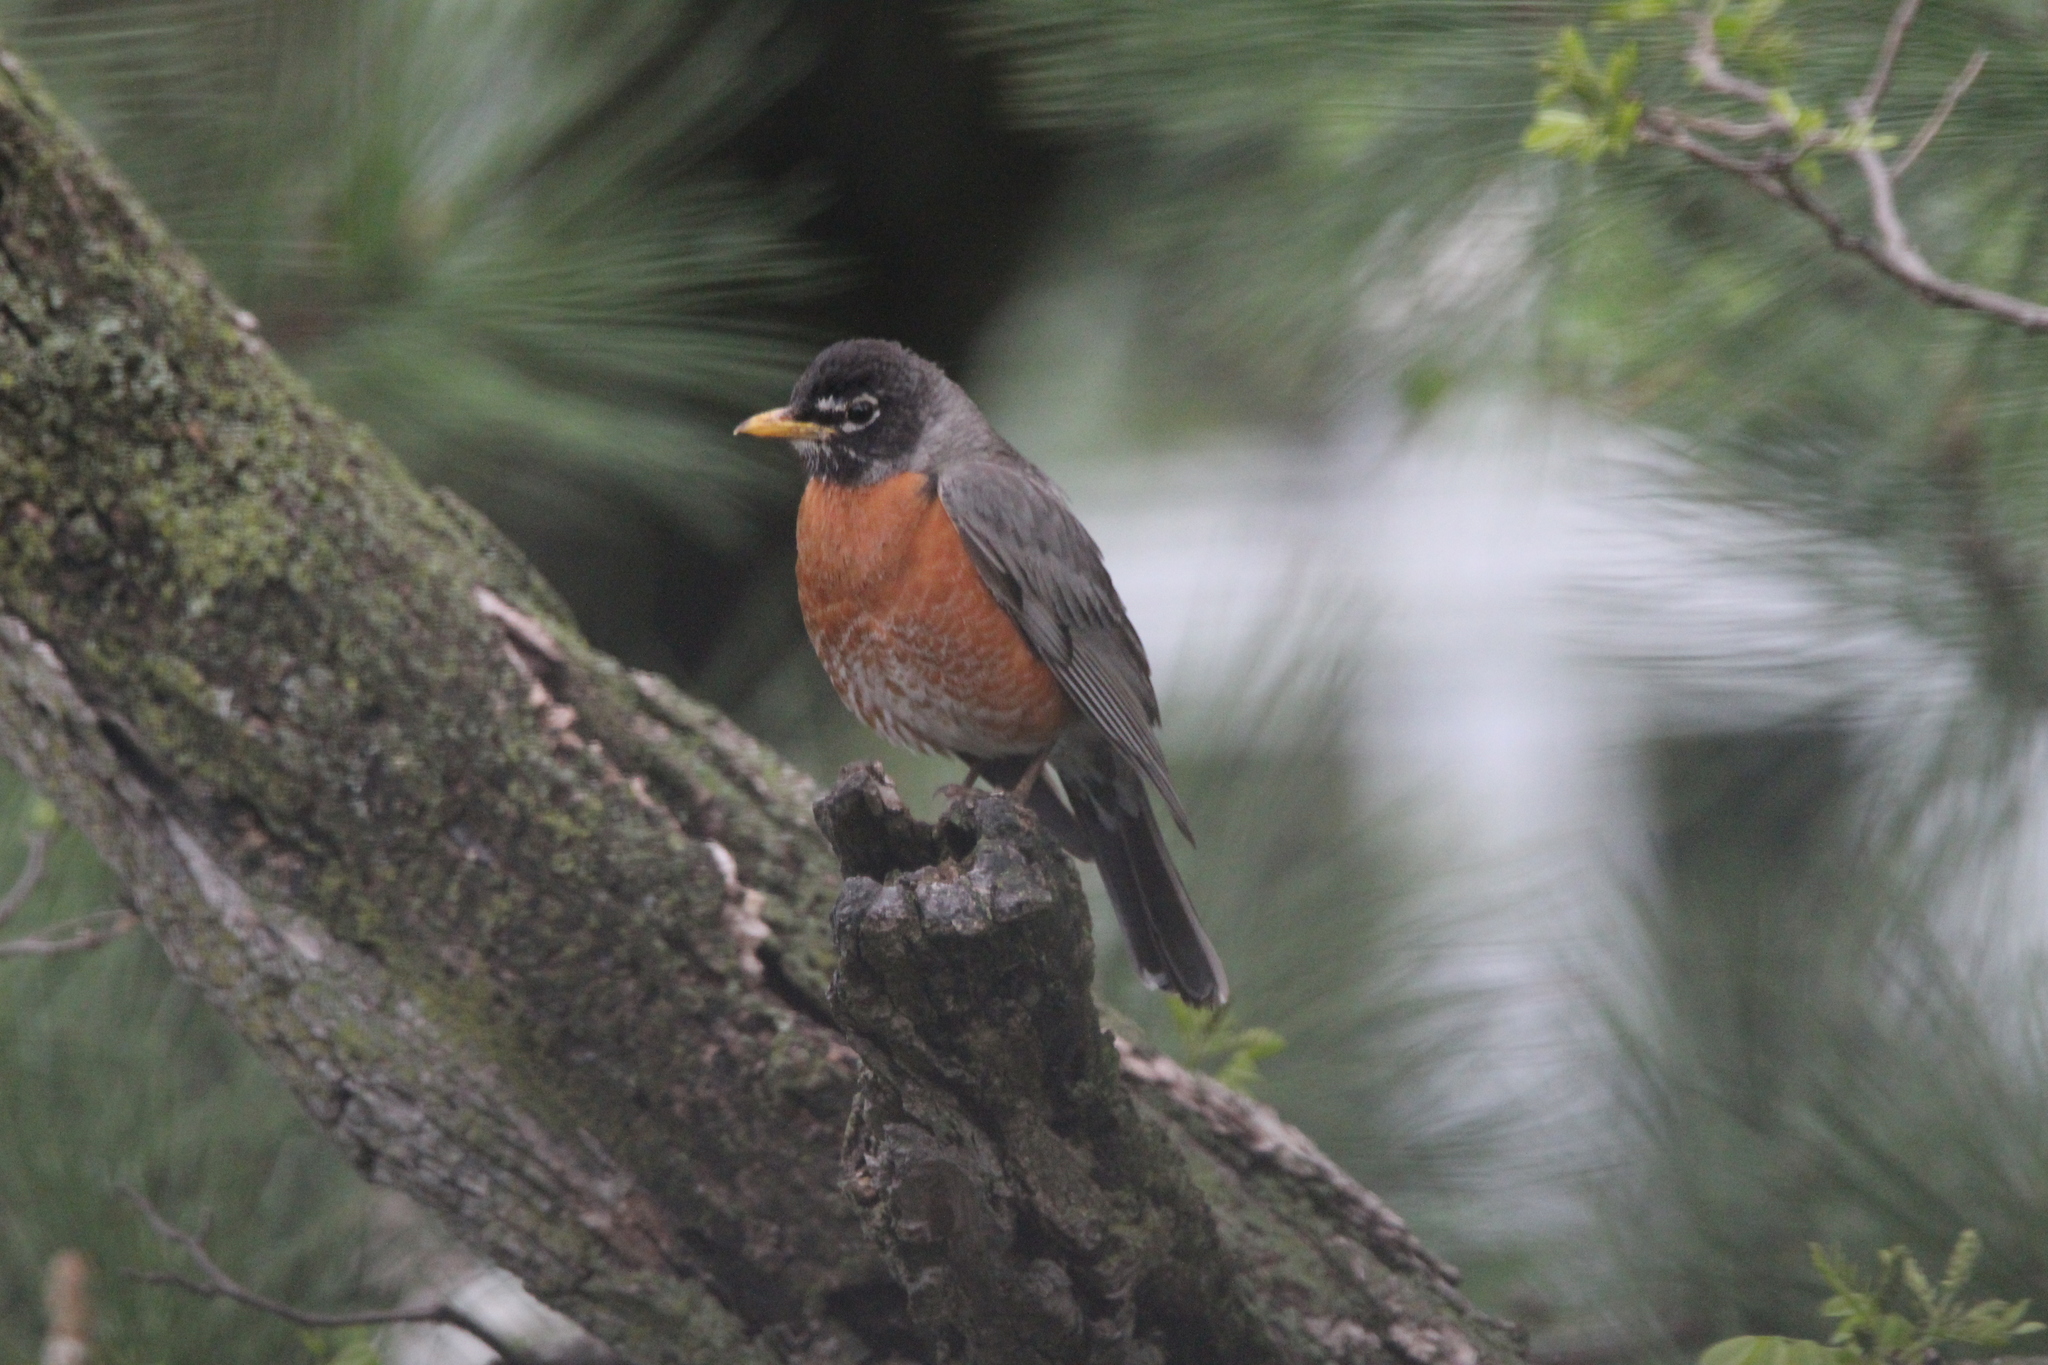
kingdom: Animalia
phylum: Chordata
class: Aves
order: Passeriformes
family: Turdidae
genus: Turdus
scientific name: Turdus migratorius
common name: American robin
